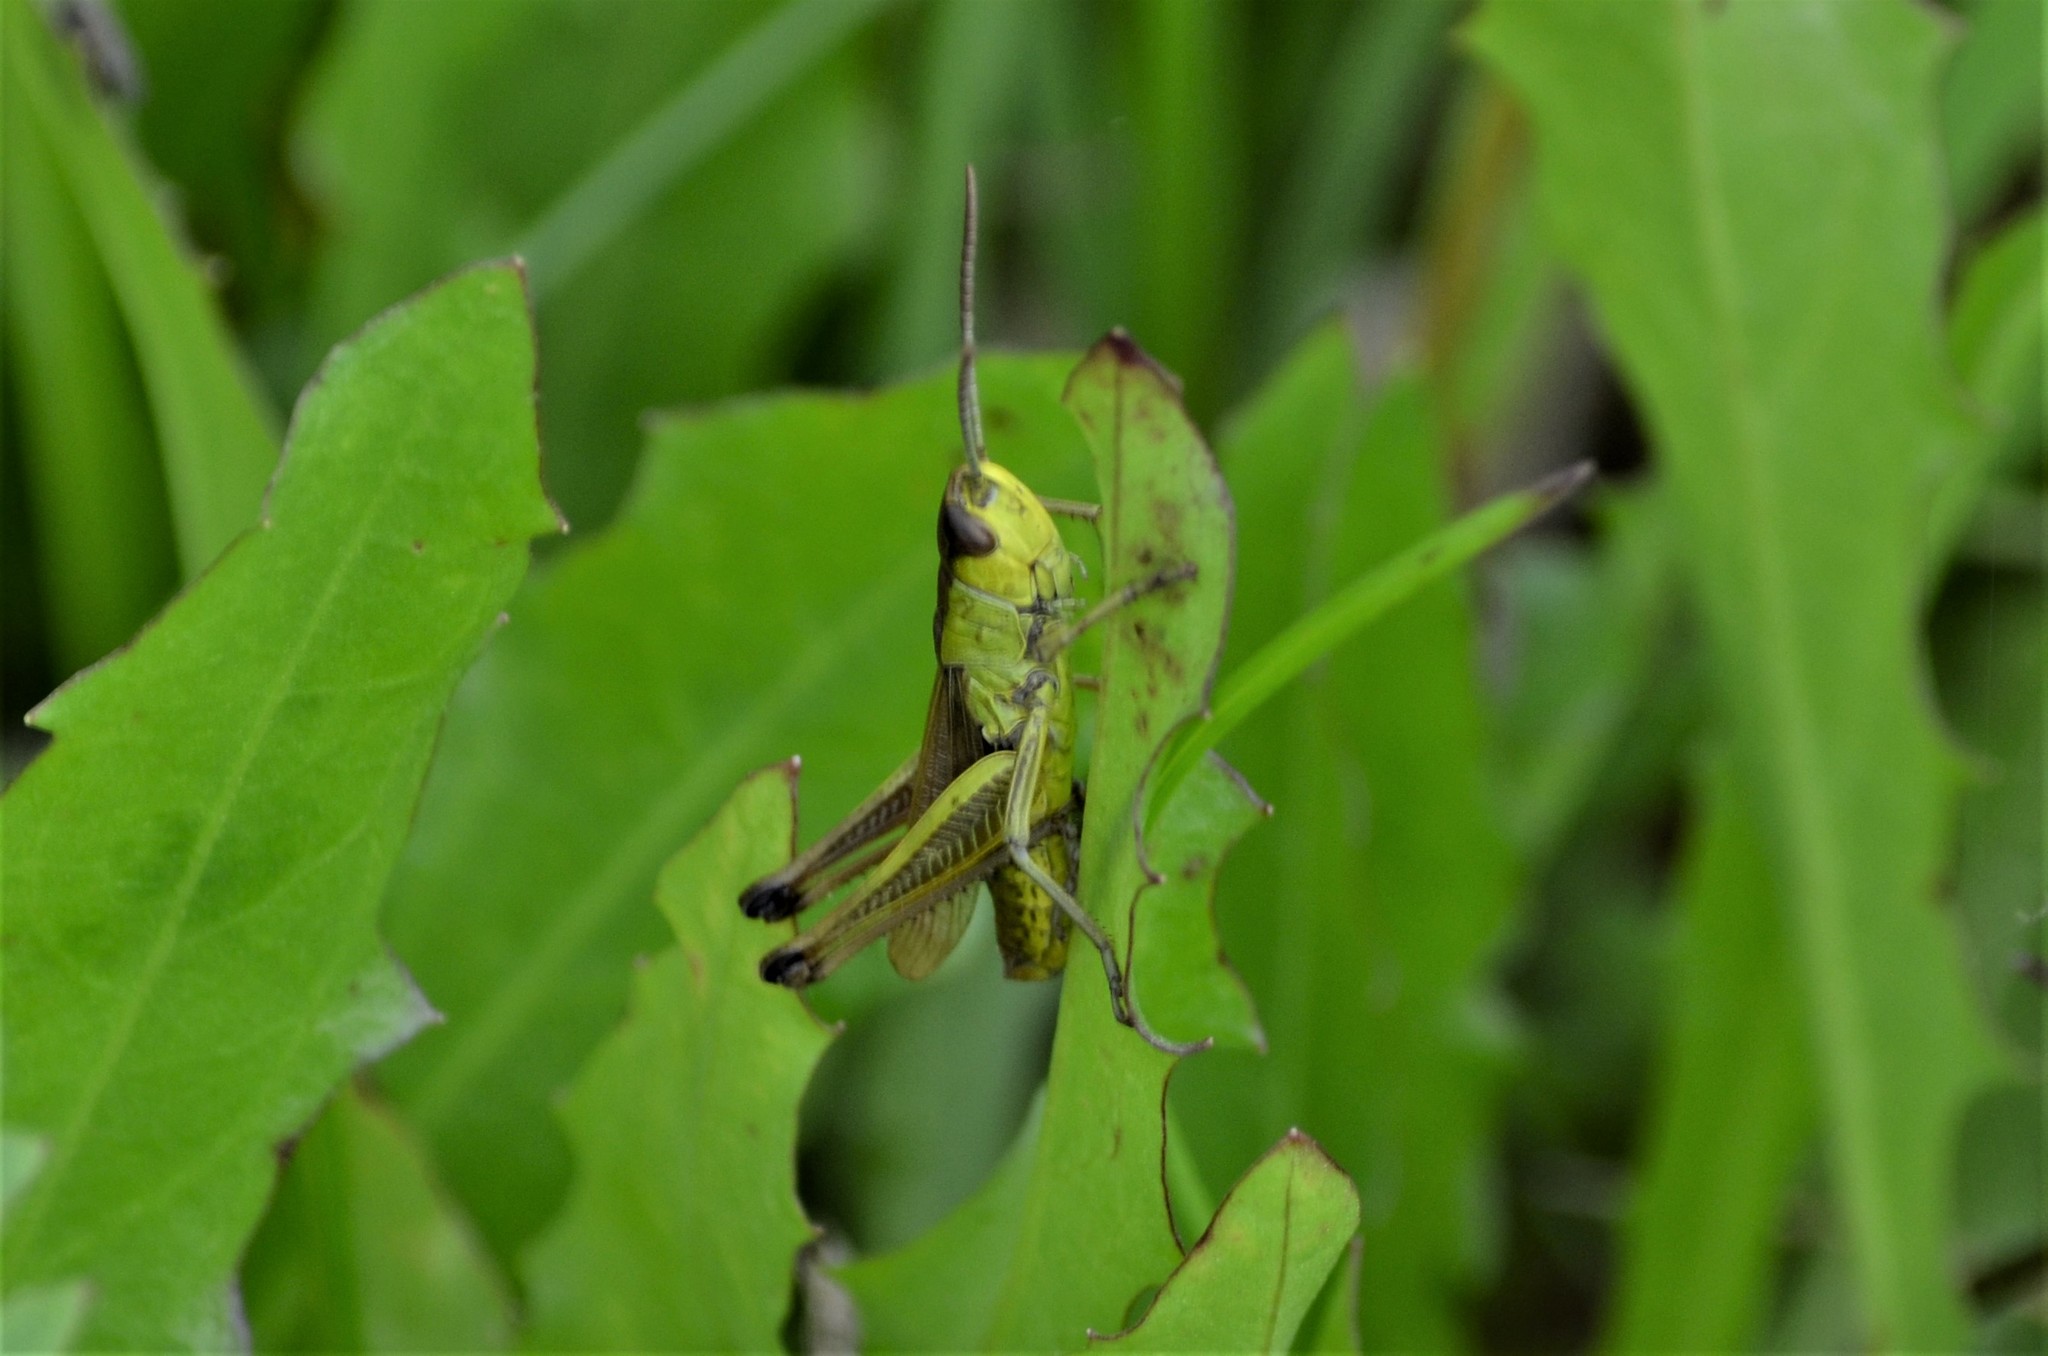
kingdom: Animalia
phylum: Arthropoda
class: Insecta
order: Orthoptera
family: Acrididae
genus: Pseudochorthippus
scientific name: Pseudochorthippus parallelus
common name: Meadow grasshopper
